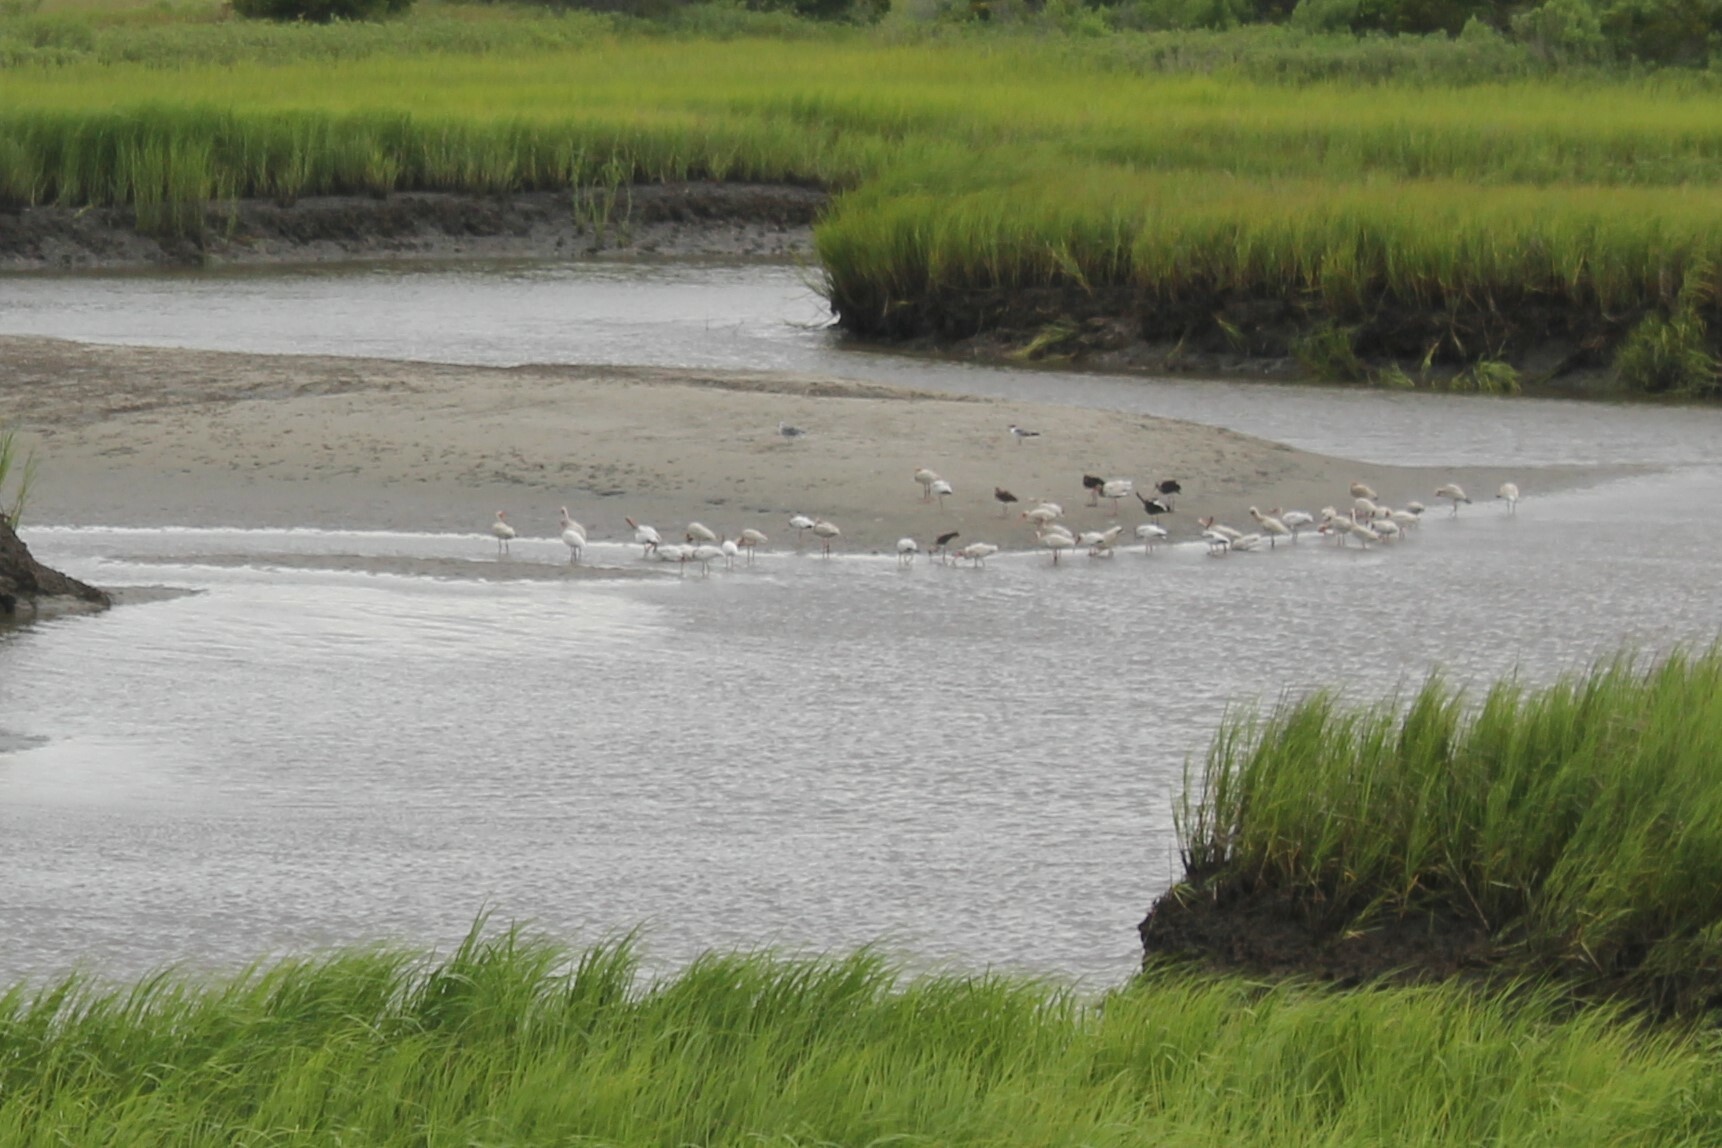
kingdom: Animalia
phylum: Chordata
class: Aves
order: Pelecaniformes
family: Threskiornithidae
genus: Eudocimus
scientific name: Eudocimus albus
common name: White ibis
